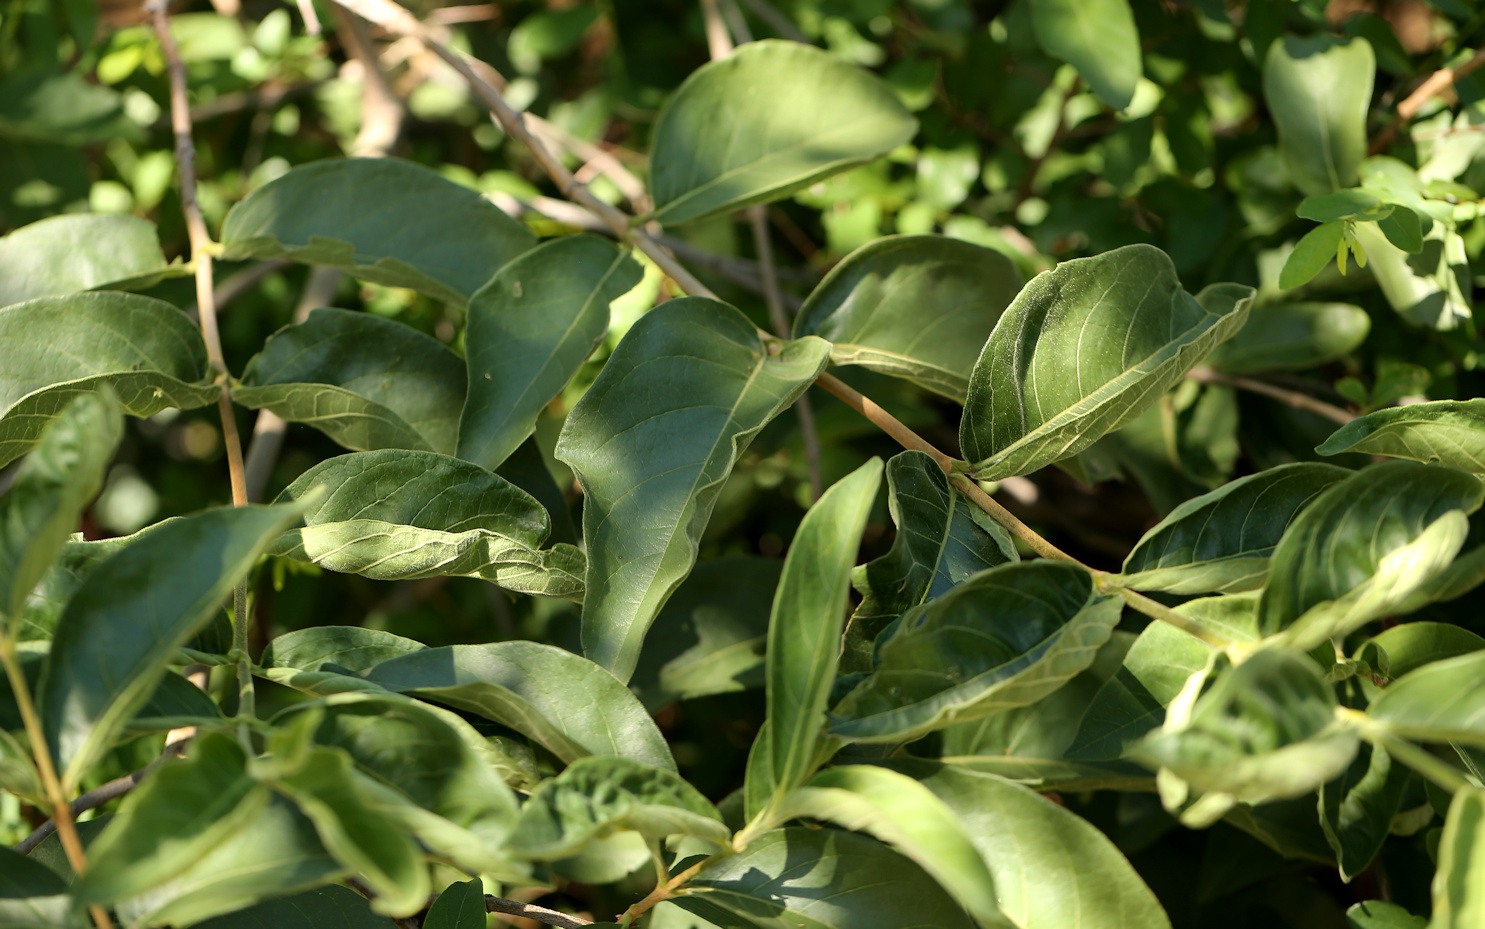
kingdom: Plantae
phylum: Tracheophyta
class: Magnoliopsida
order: Gentianales
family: Rubiaceae
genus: Vangueria
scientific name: Vangueria infausta
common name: Medlar
